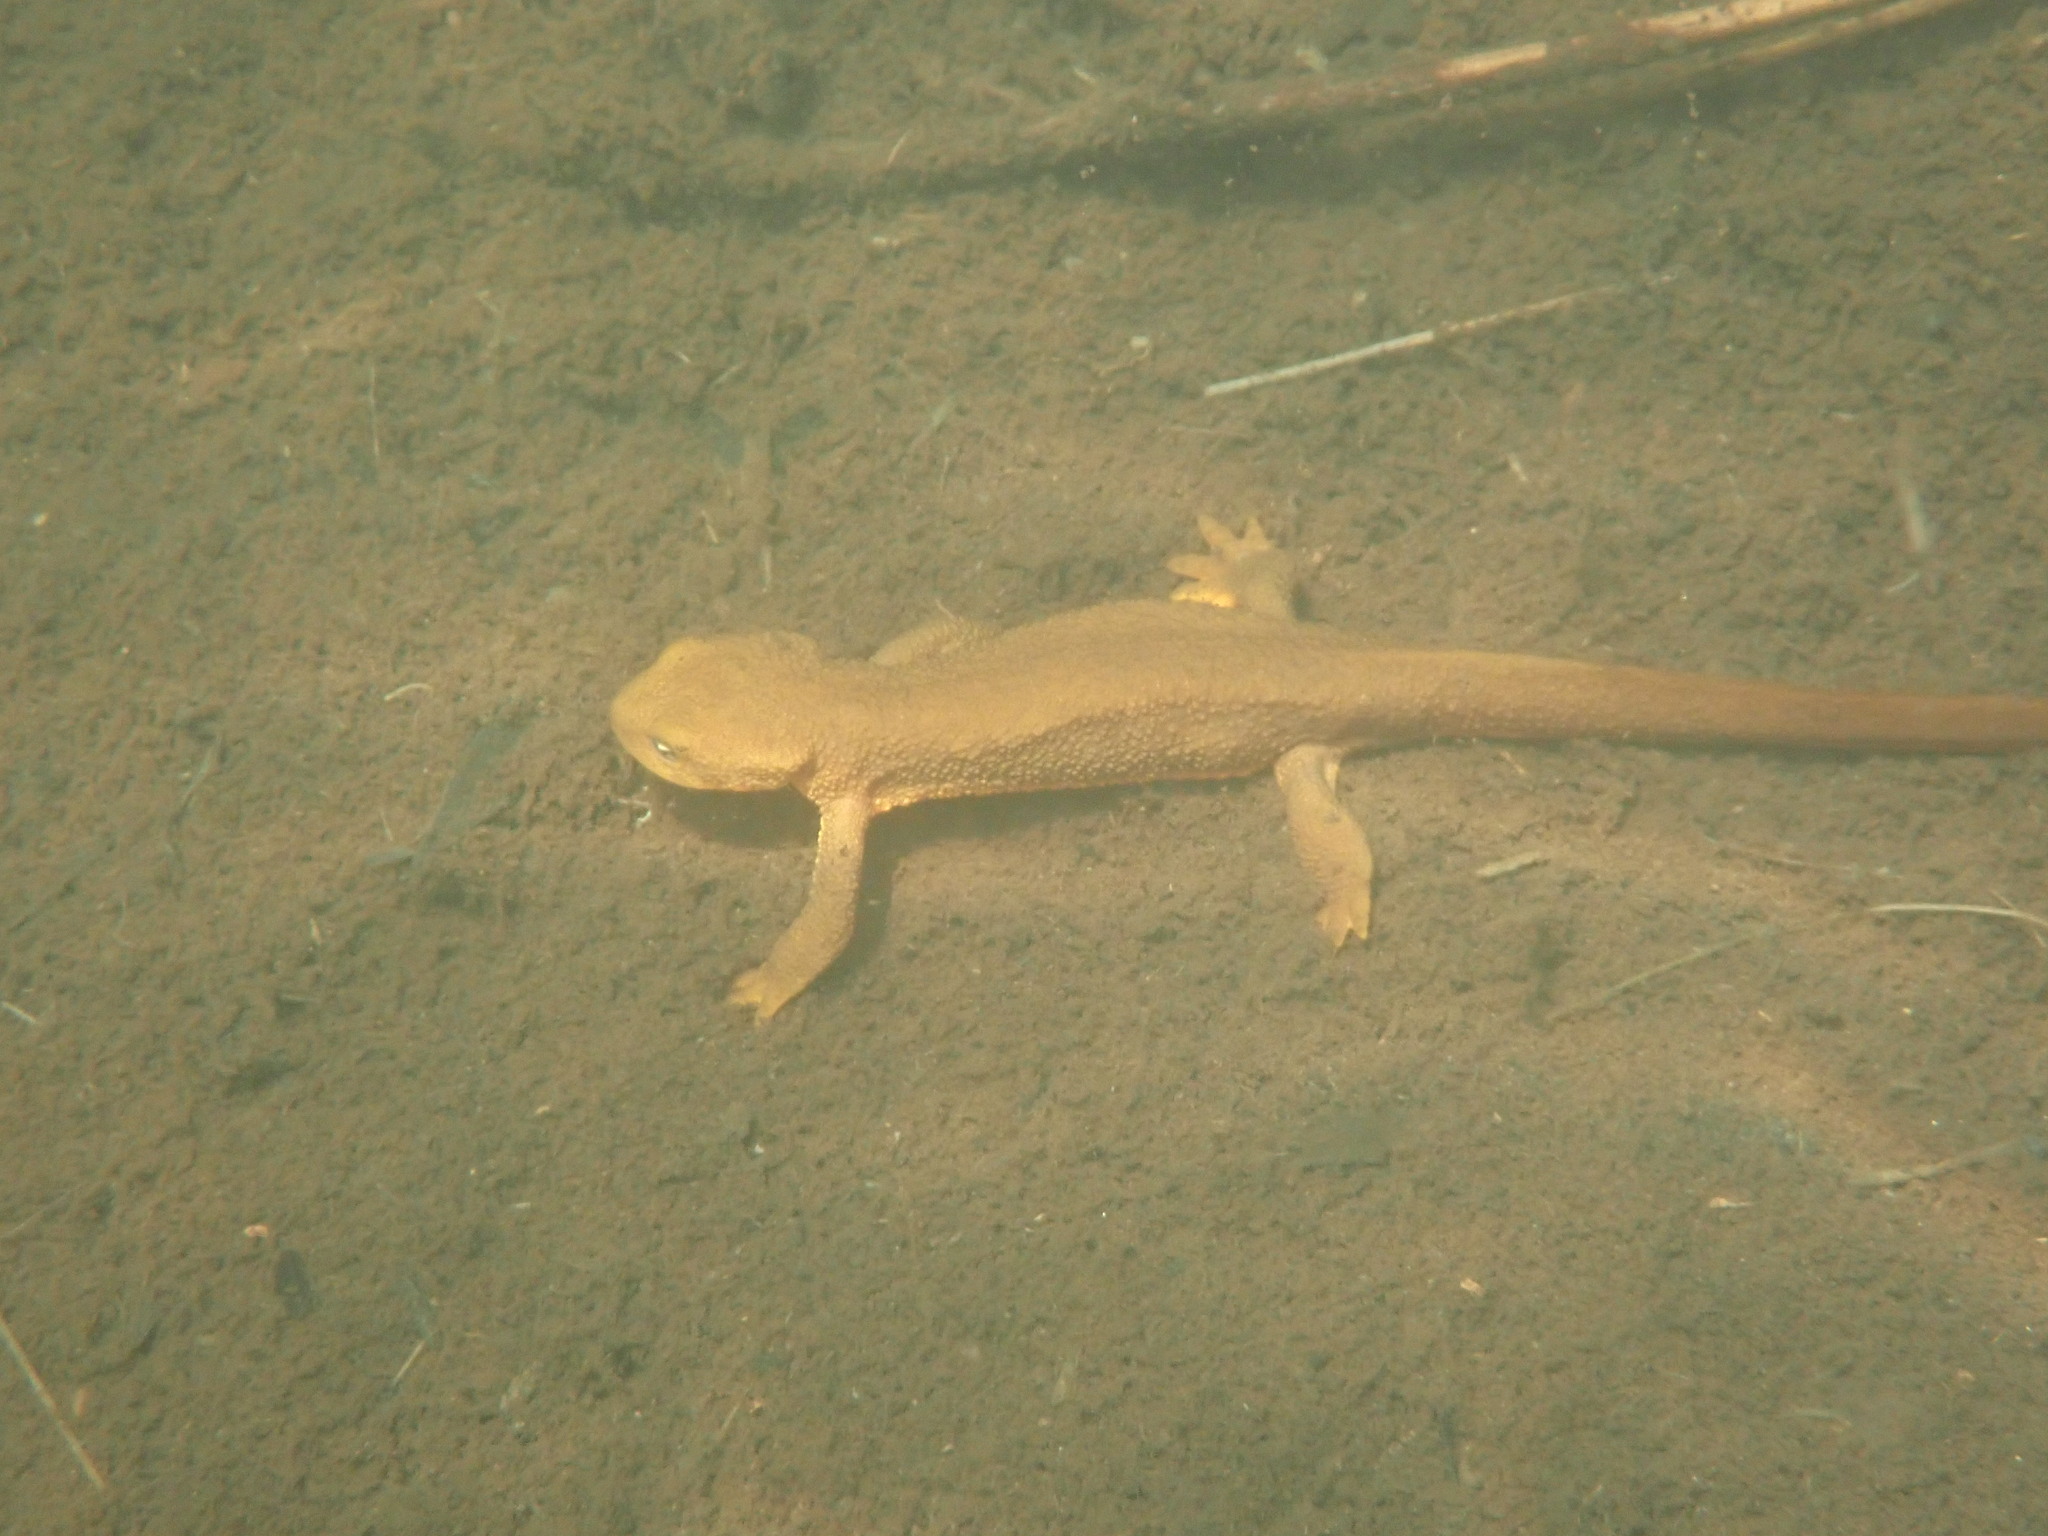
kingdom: Animalia
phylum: Chordata
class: Amphibia
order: Caudata
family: Salamandridae
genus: Taricha
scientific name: Taricha granulosa
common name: Roughskin newt
